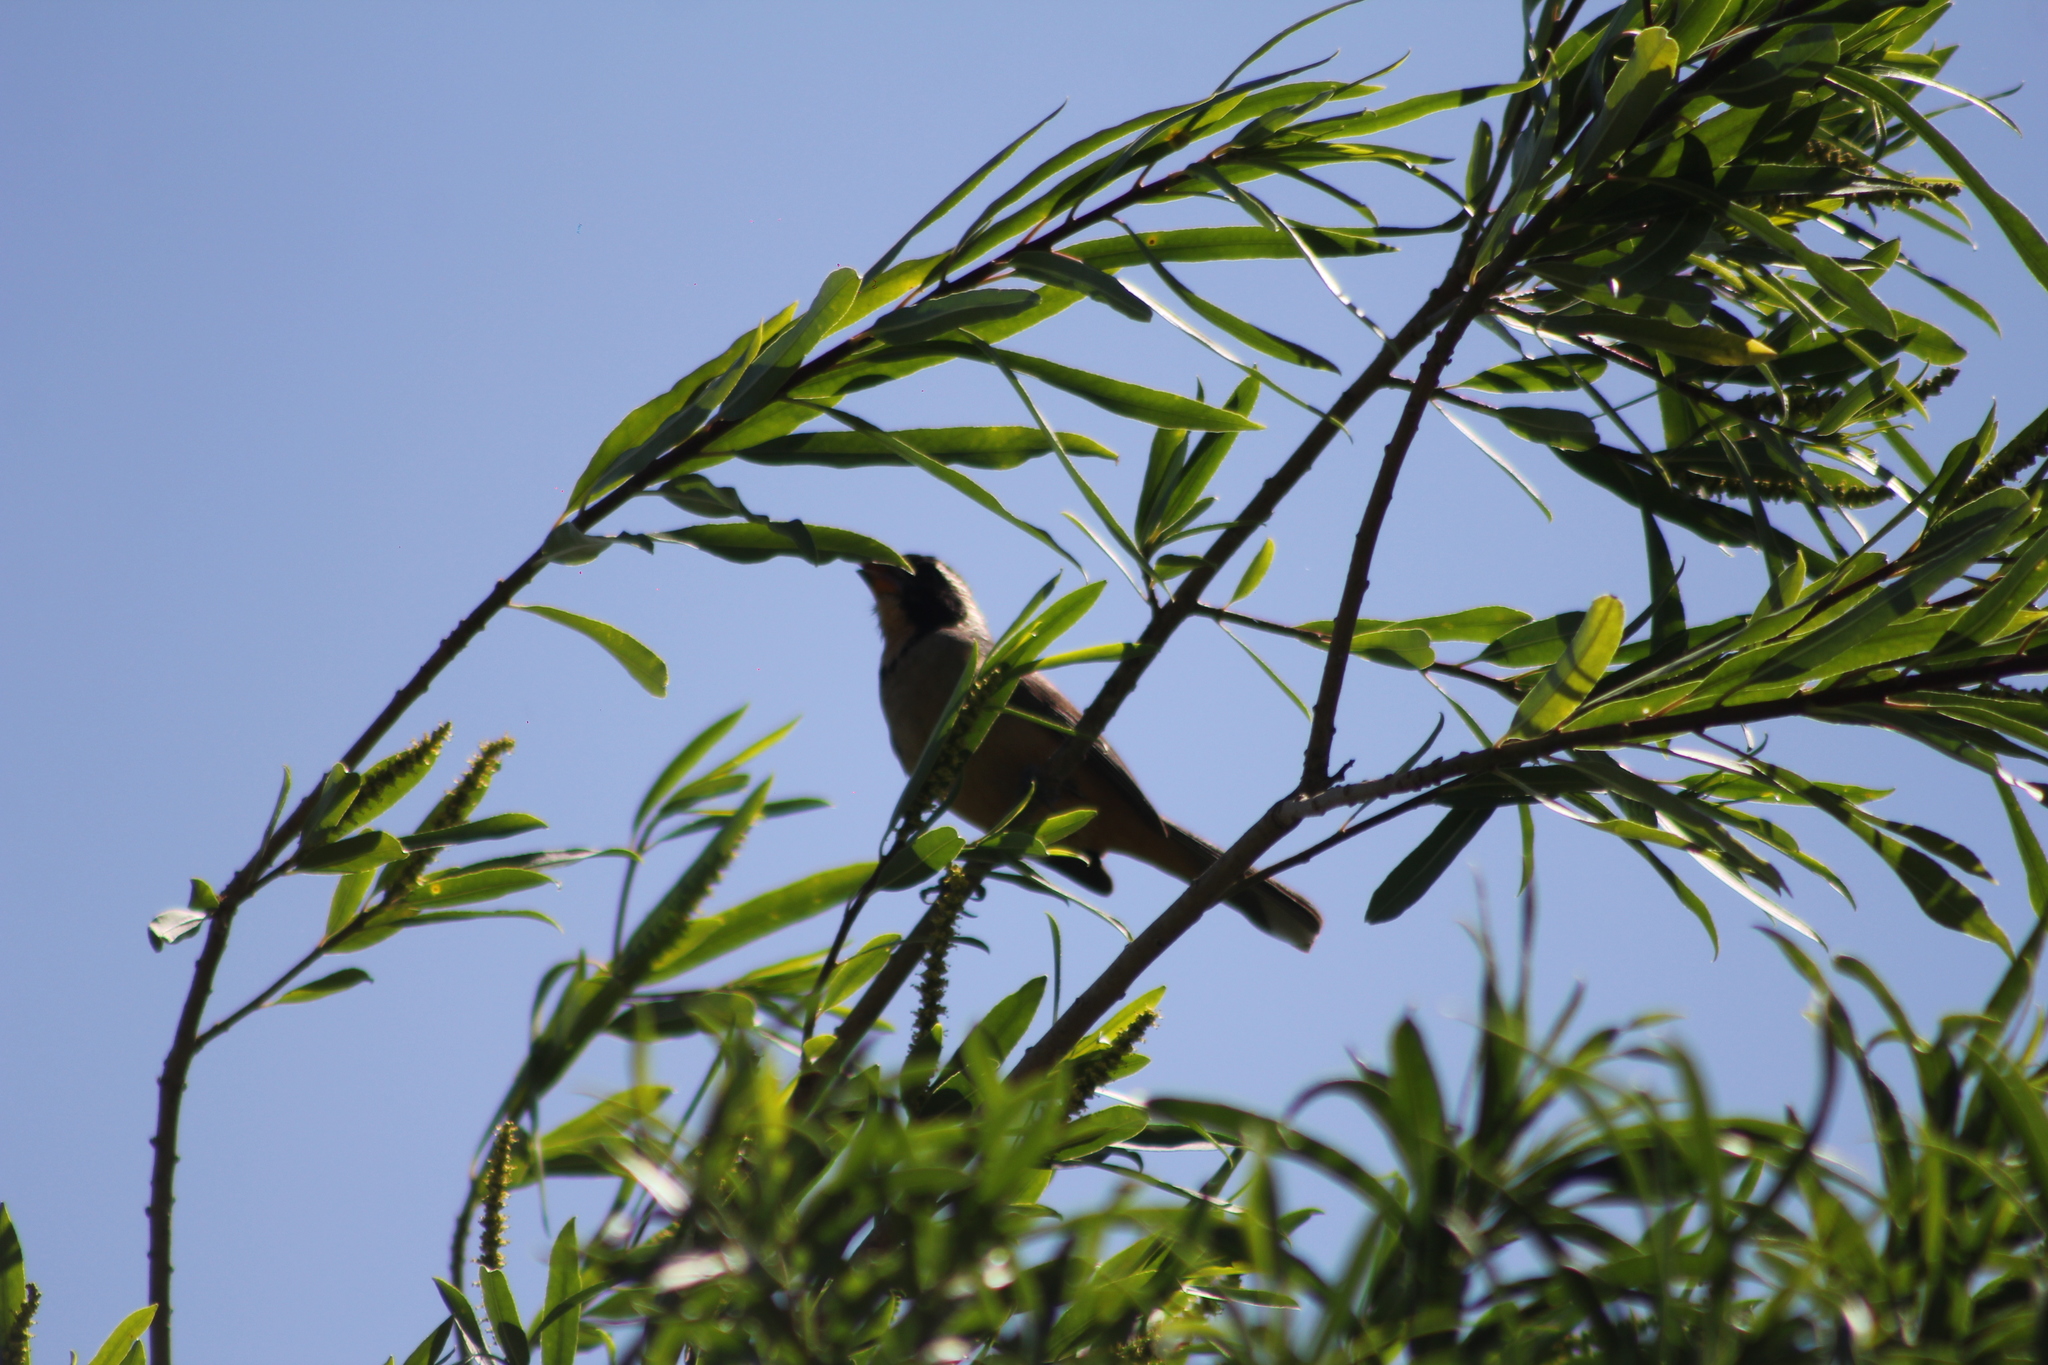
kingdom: Animalia
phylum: Chordata
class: Aves
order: Passeriformes
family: Thraupidae
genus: Saltator
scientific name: Saltator aurantiirostris
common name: Golden-billed saltator
